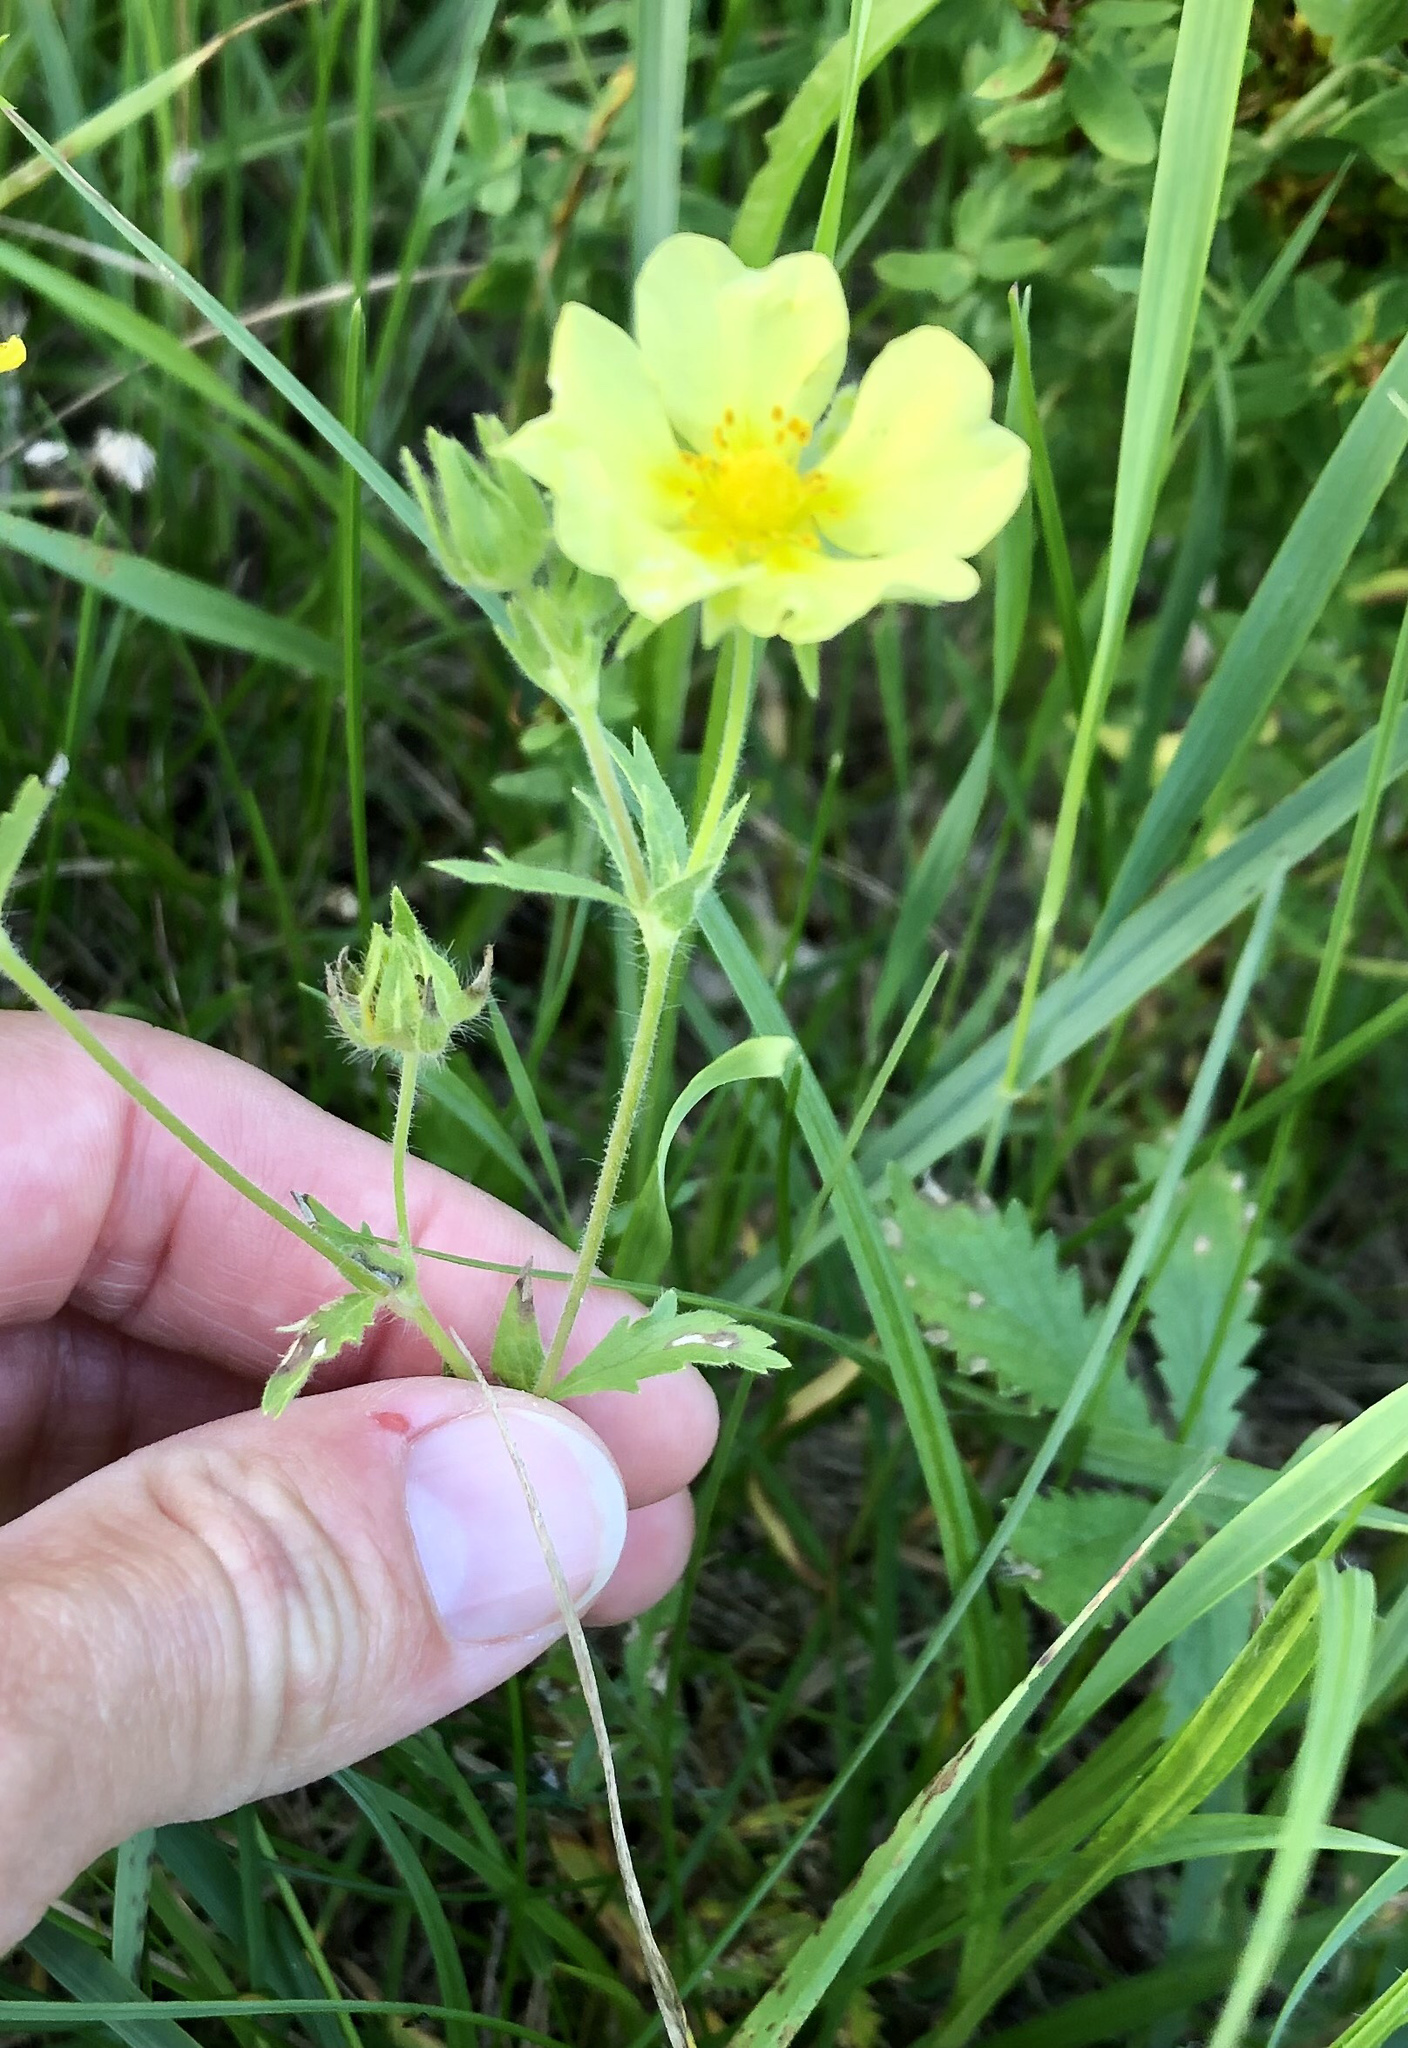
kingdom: Plantae
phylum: Tracheophyta
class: Magnoliopsida
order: Rosales
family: Rosaceae
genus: Potentilla
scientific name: Potentilla recta
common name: Sulphur cinquefoil
